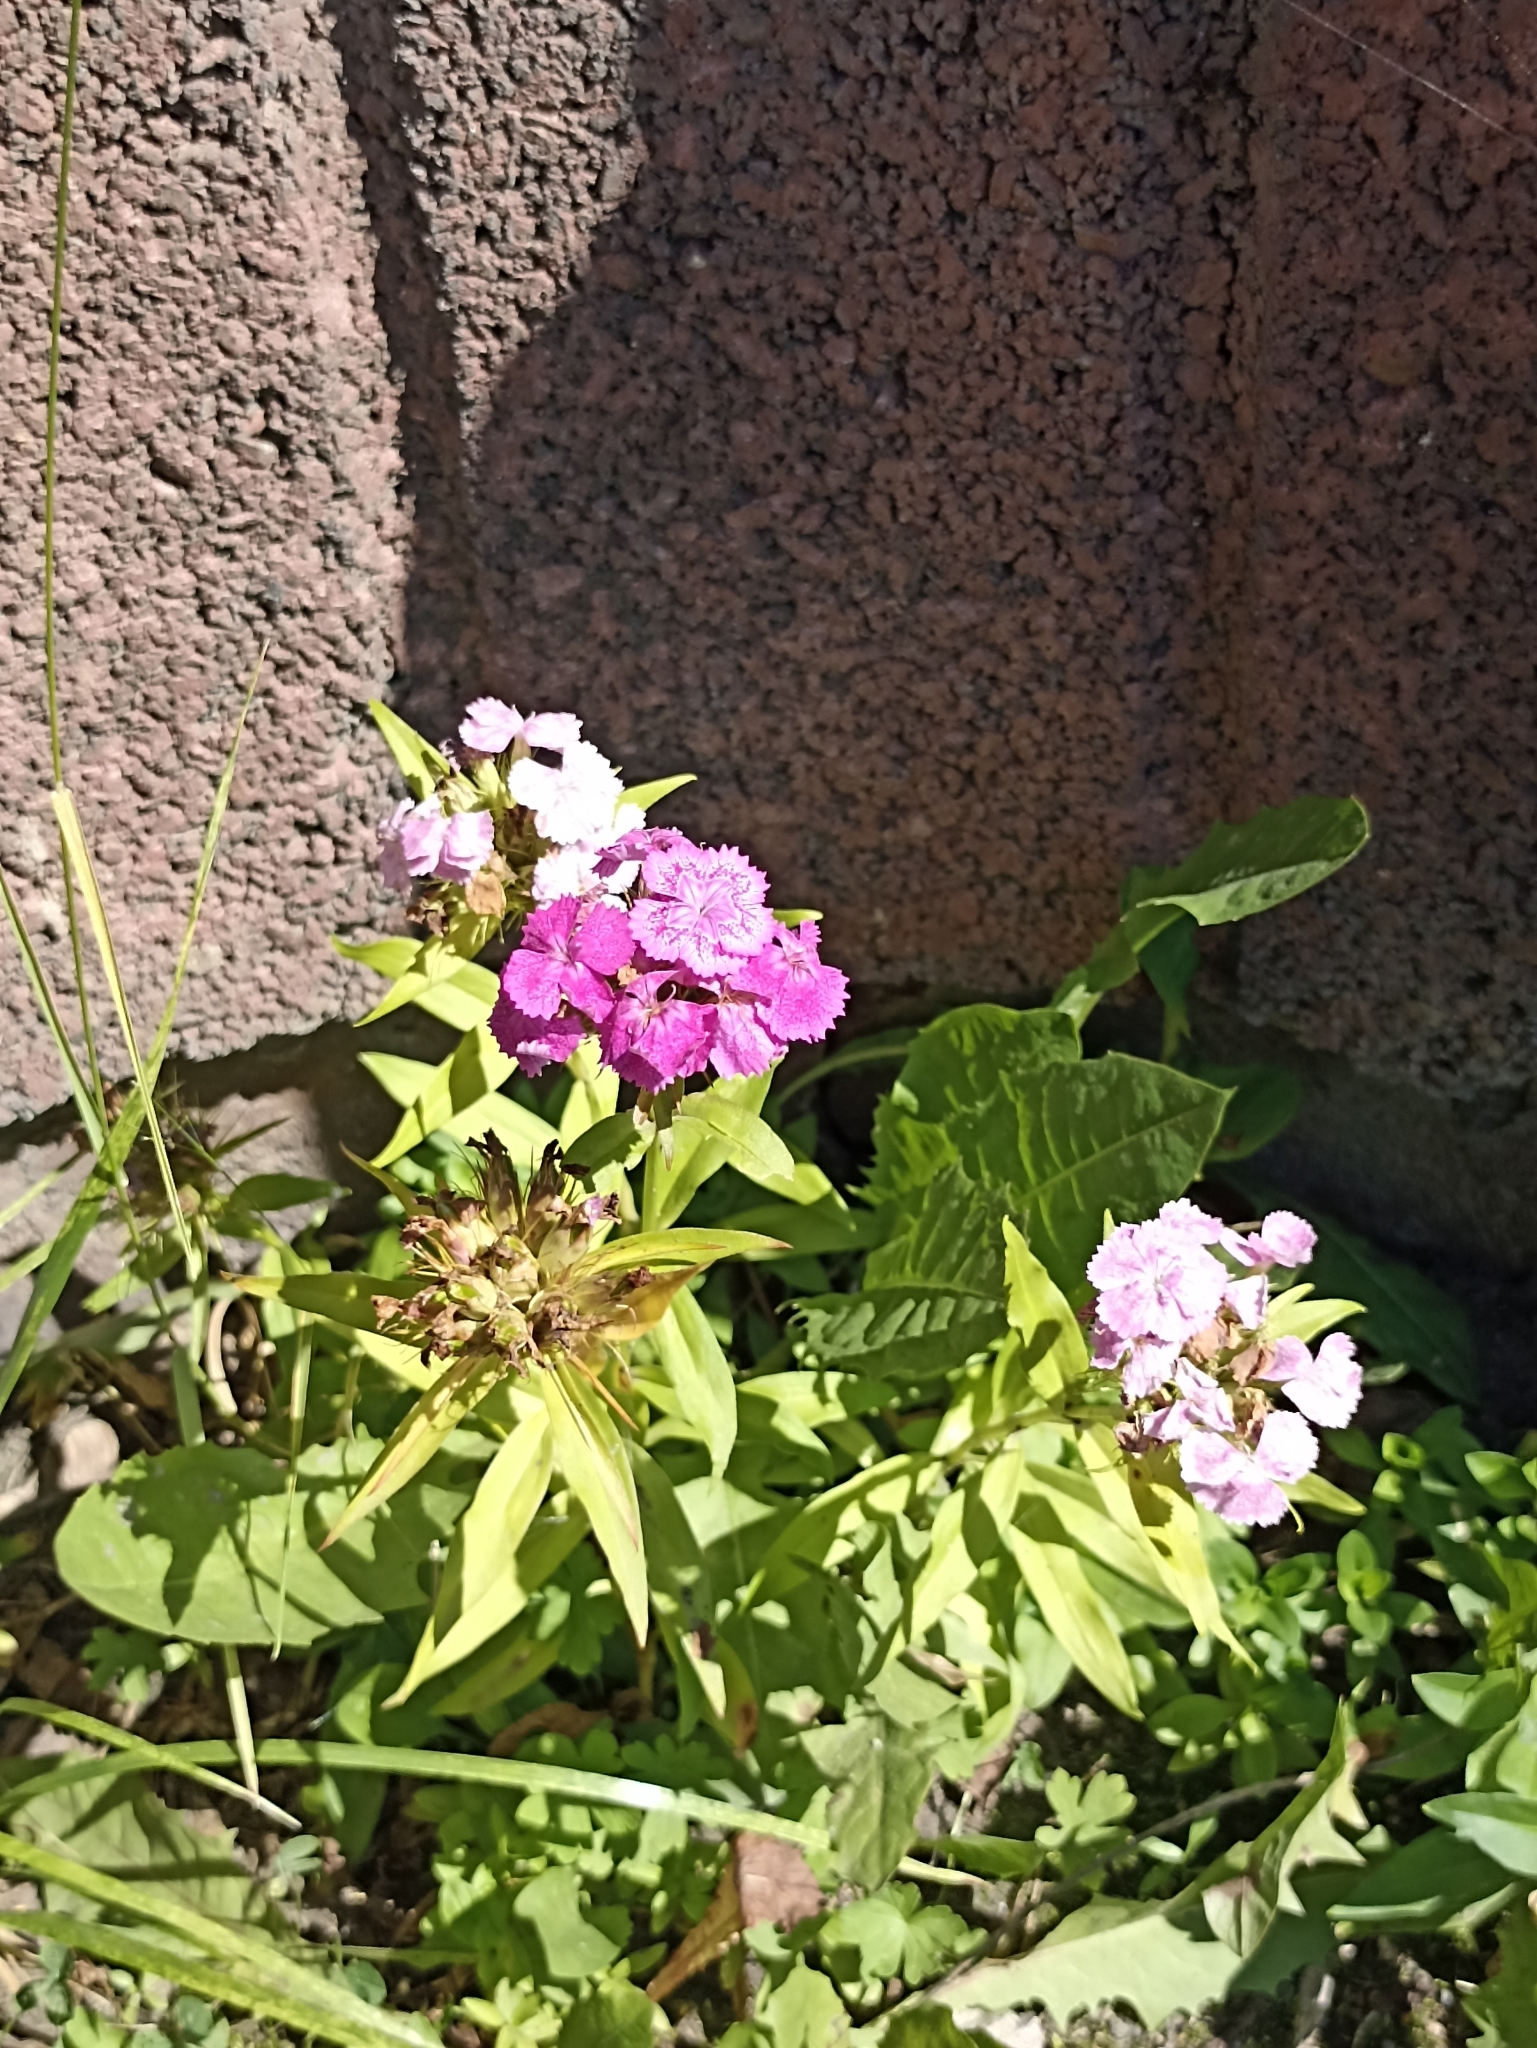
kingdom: Plantae
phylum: Tracheophyta
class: Magnoliopsida
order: Caryophyllales
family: Caryophyllaceae
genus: Dianthus
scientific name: Dianthus barbatus
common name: Sweet-william
